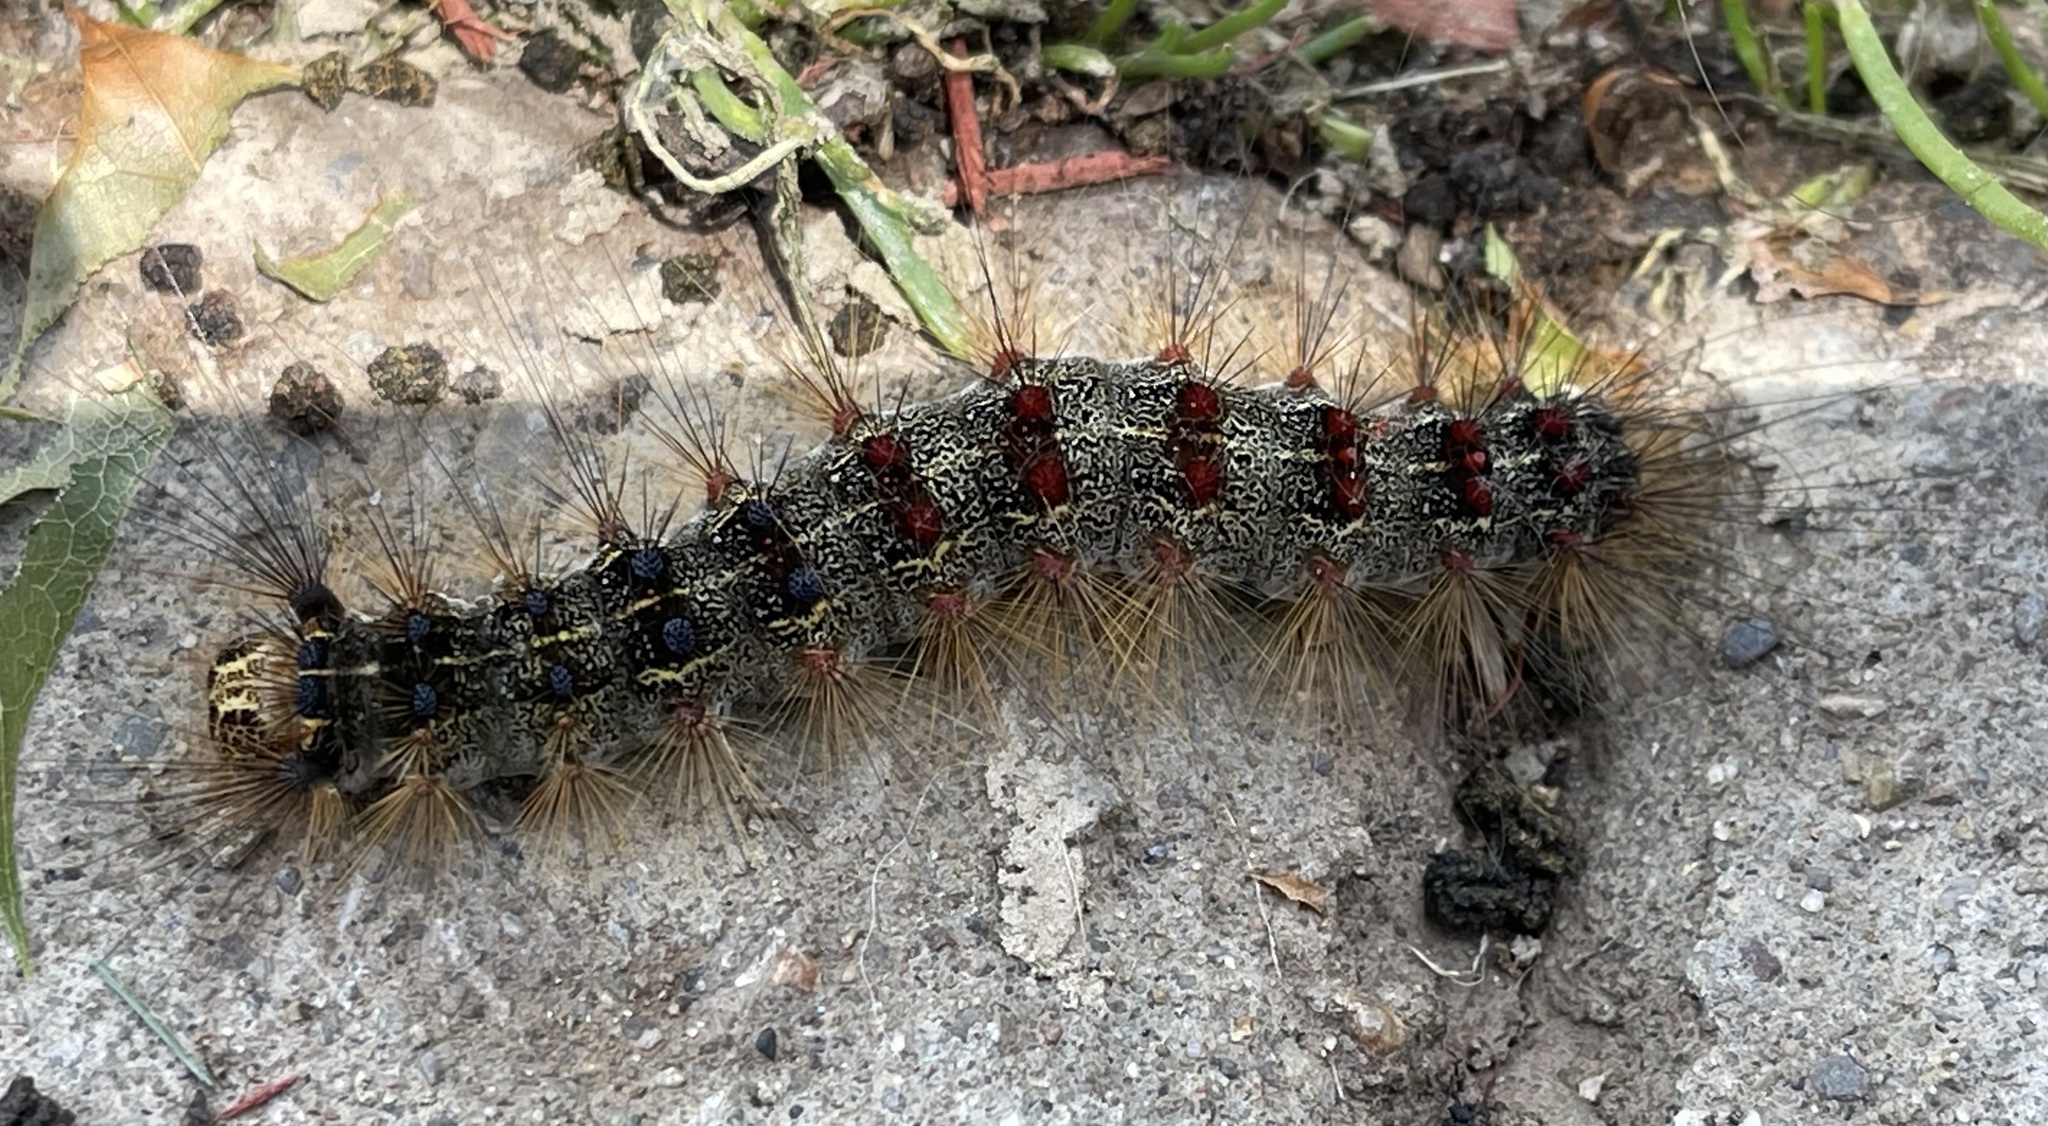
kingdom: Animalia
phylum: Arthropoda
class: Insecta
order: Lepidoptera
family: Erebidae
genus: Lymantria
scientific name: Lymantria dispar
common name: Gypsy moth
